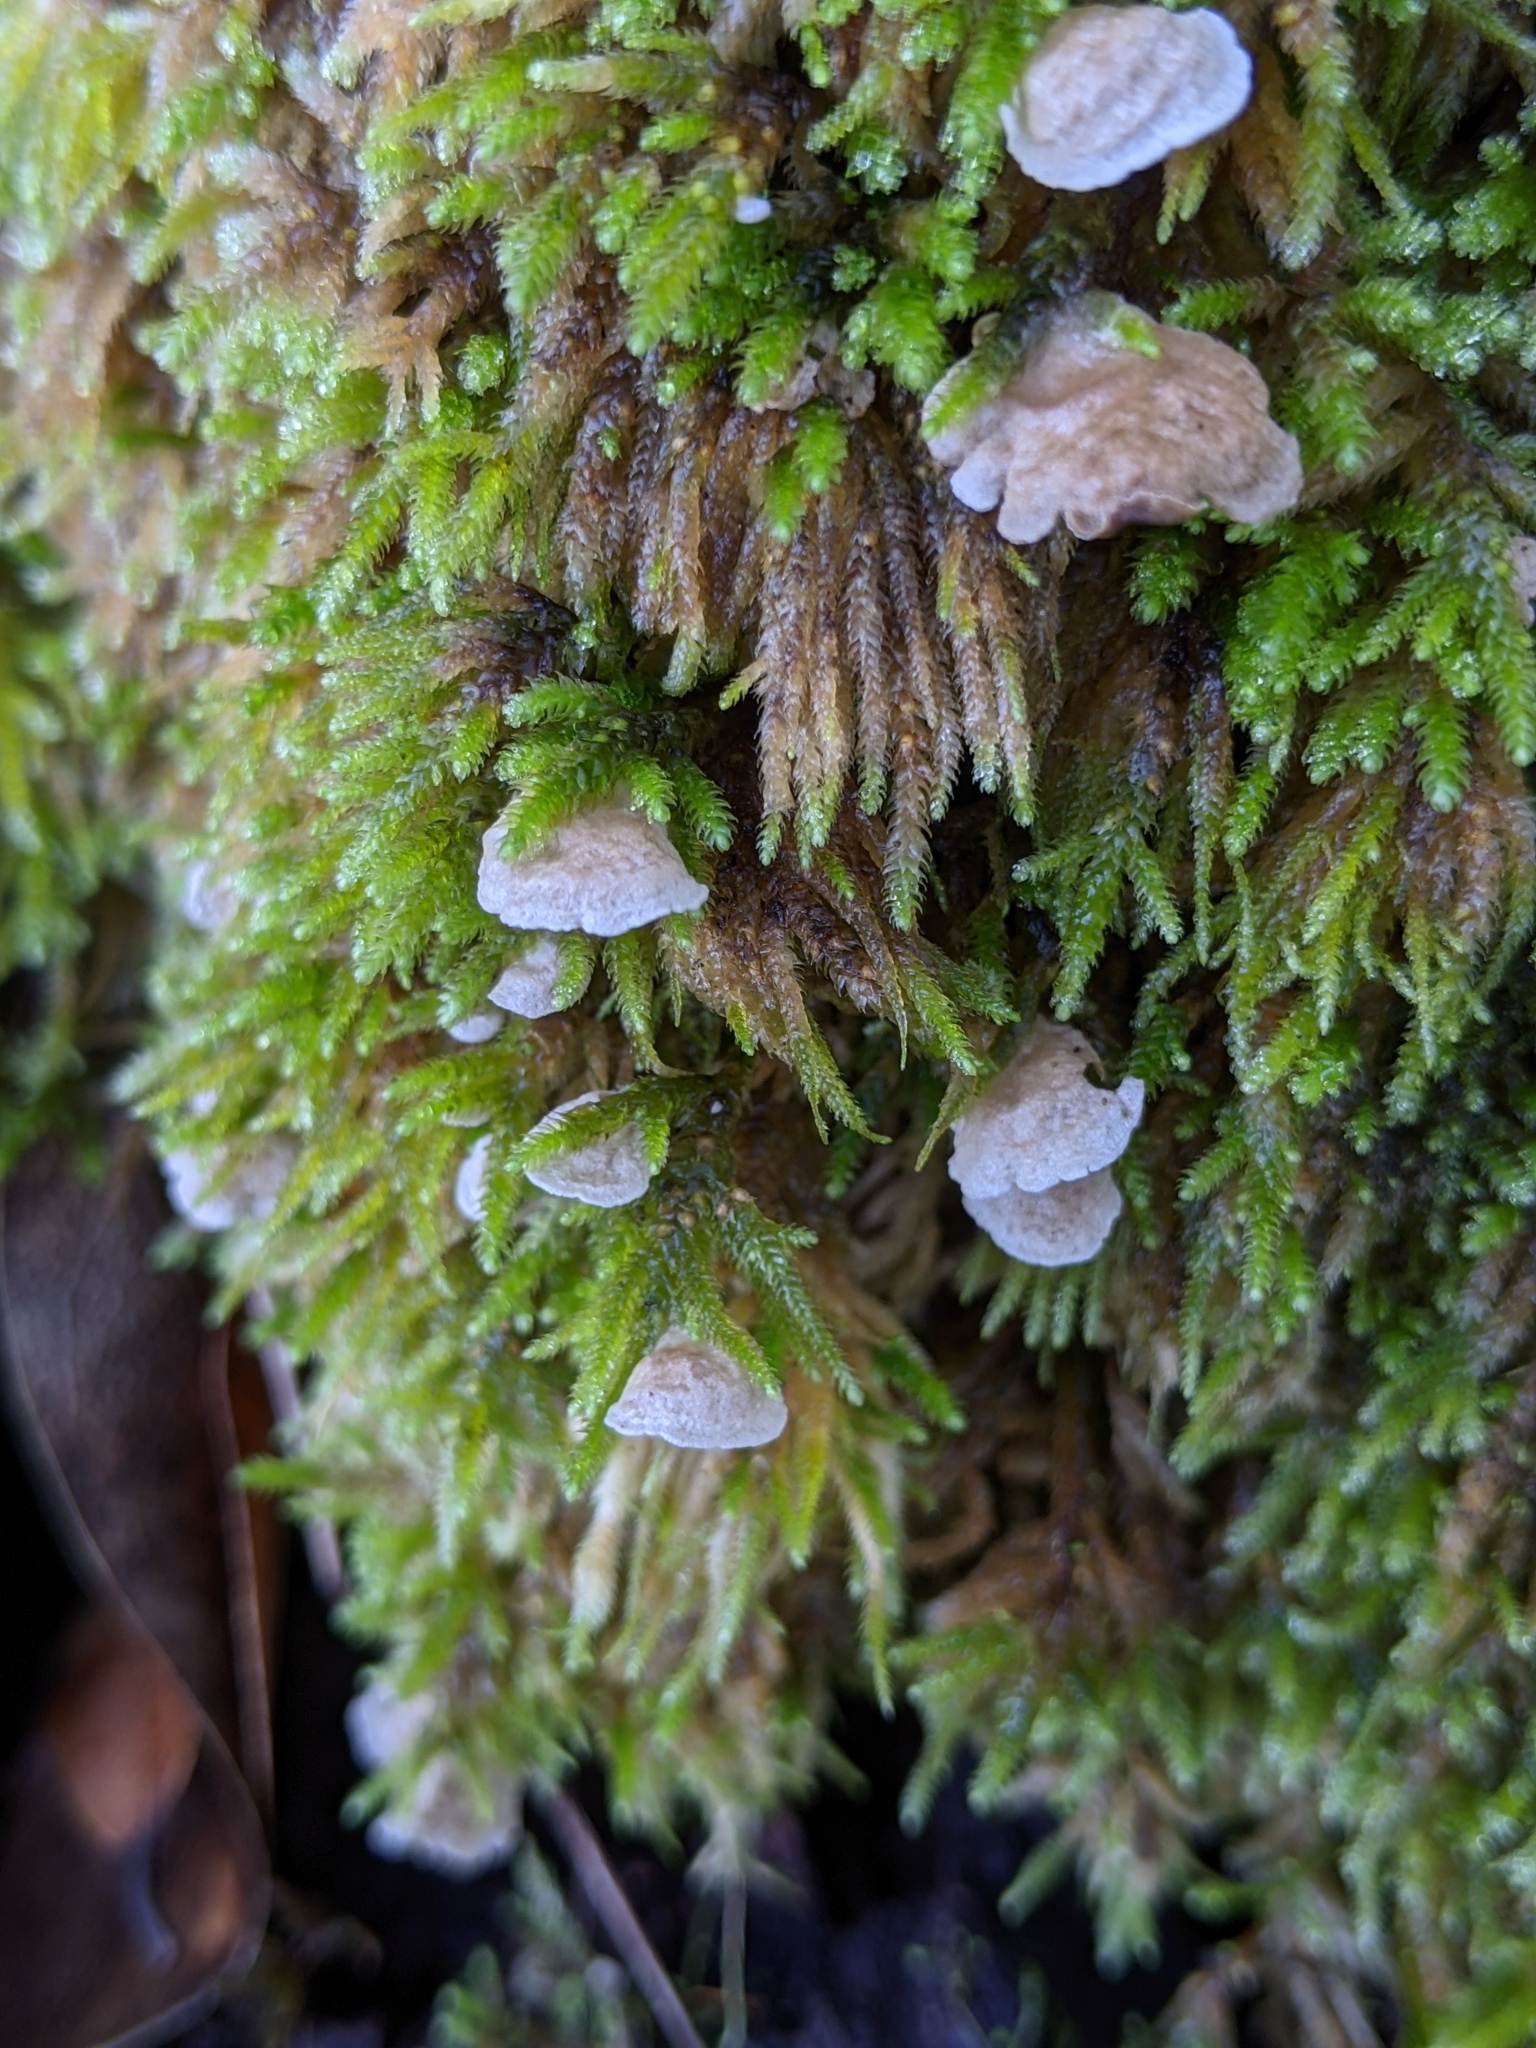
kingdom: Fungi
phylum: Basidiomycota
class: Agaricomycetes
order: Agaricales
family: Hygrophoraceae
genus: Arrhenia
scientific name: Arrhenia retiruga
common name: Small moss oysterling
